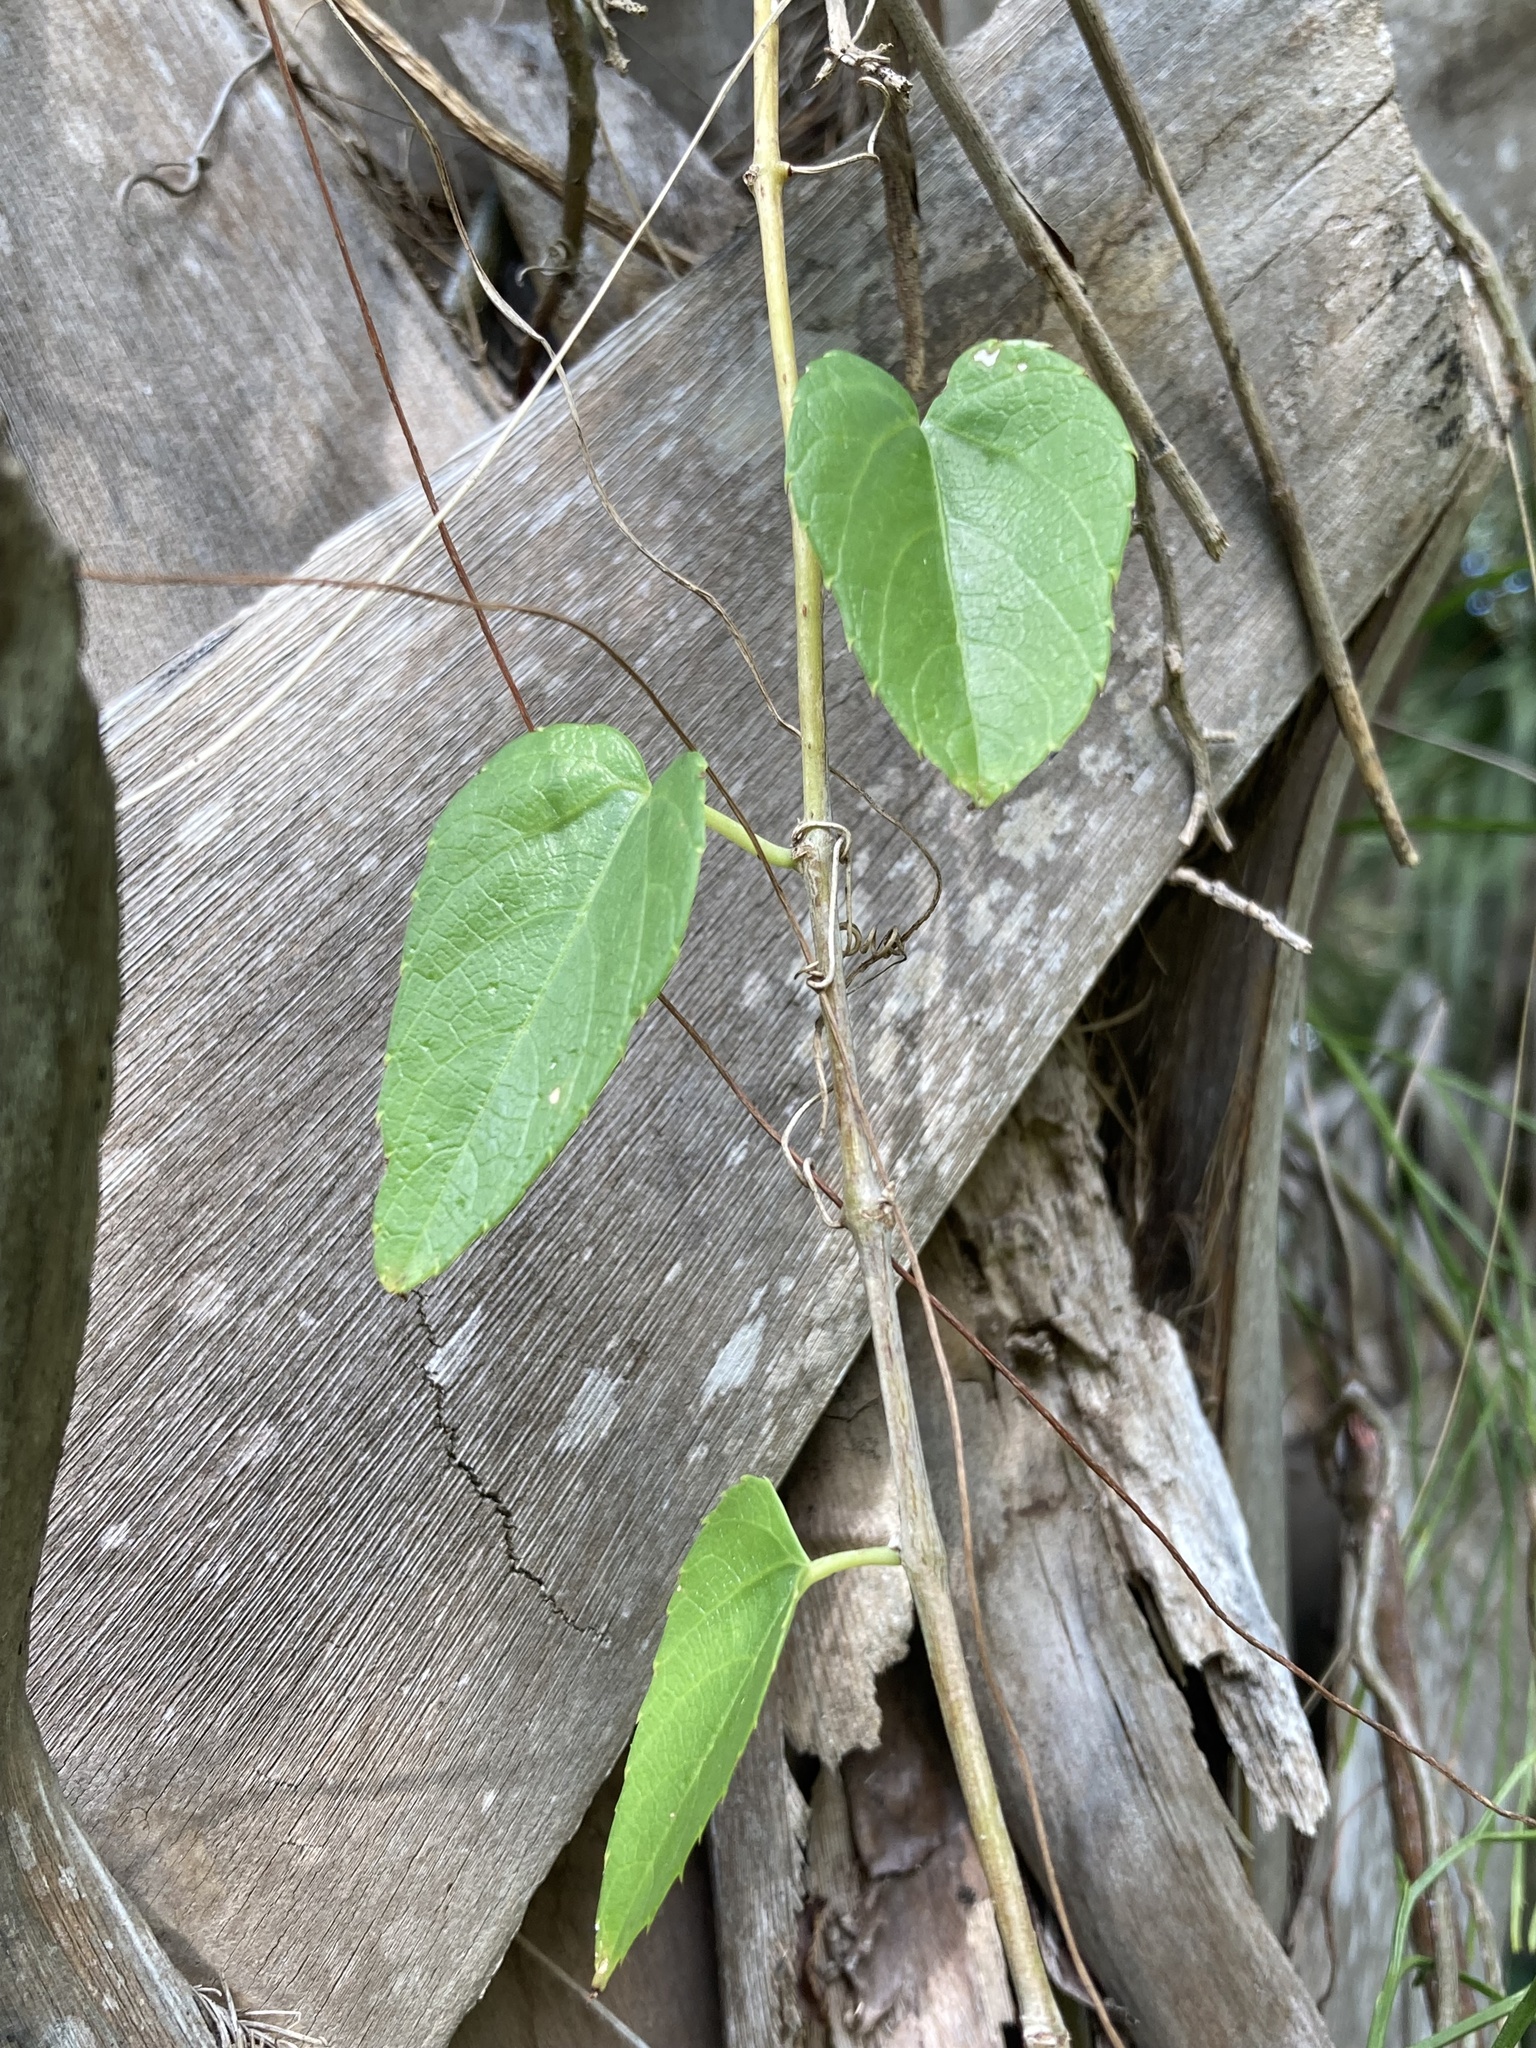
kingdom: Plantae
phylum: Tracheophyta
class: Magnoliopsida
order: Vitales
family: Vitaceae
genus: Cissus
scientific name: Cissus verticillata
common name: Princess vine
